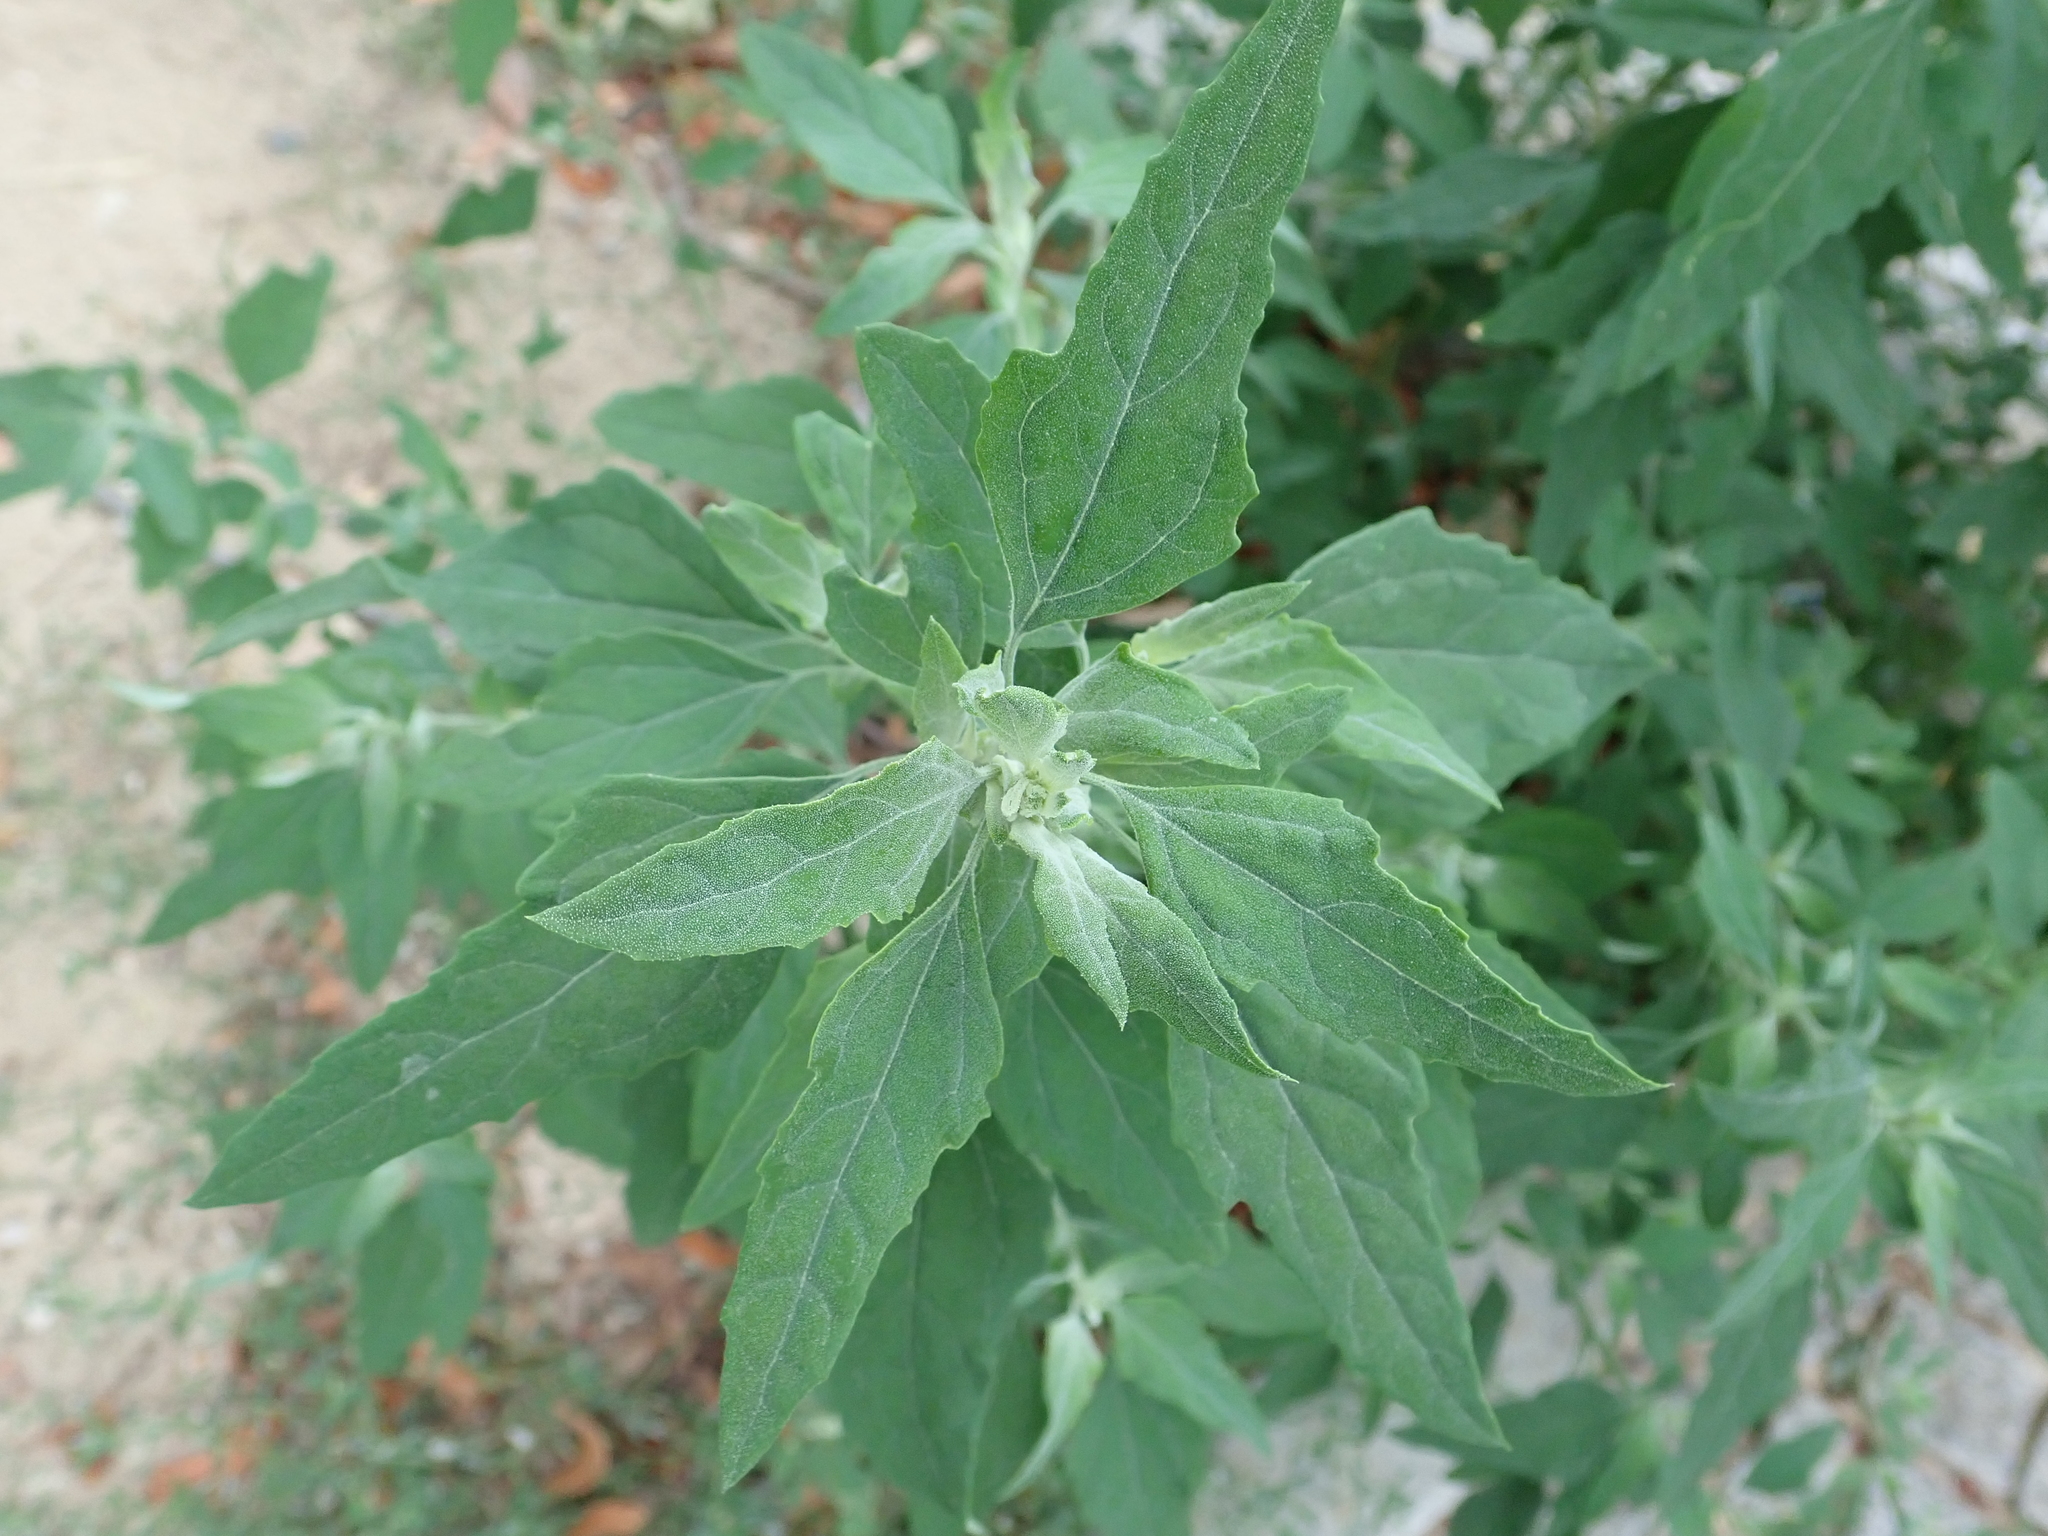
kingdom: Plantae
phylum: Tracheophyta
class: Magnoliopsida
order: Caryophyllales
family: Amaranthaceae
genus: Chenopodium
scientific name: Chenopodium album
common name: Fat-hen
